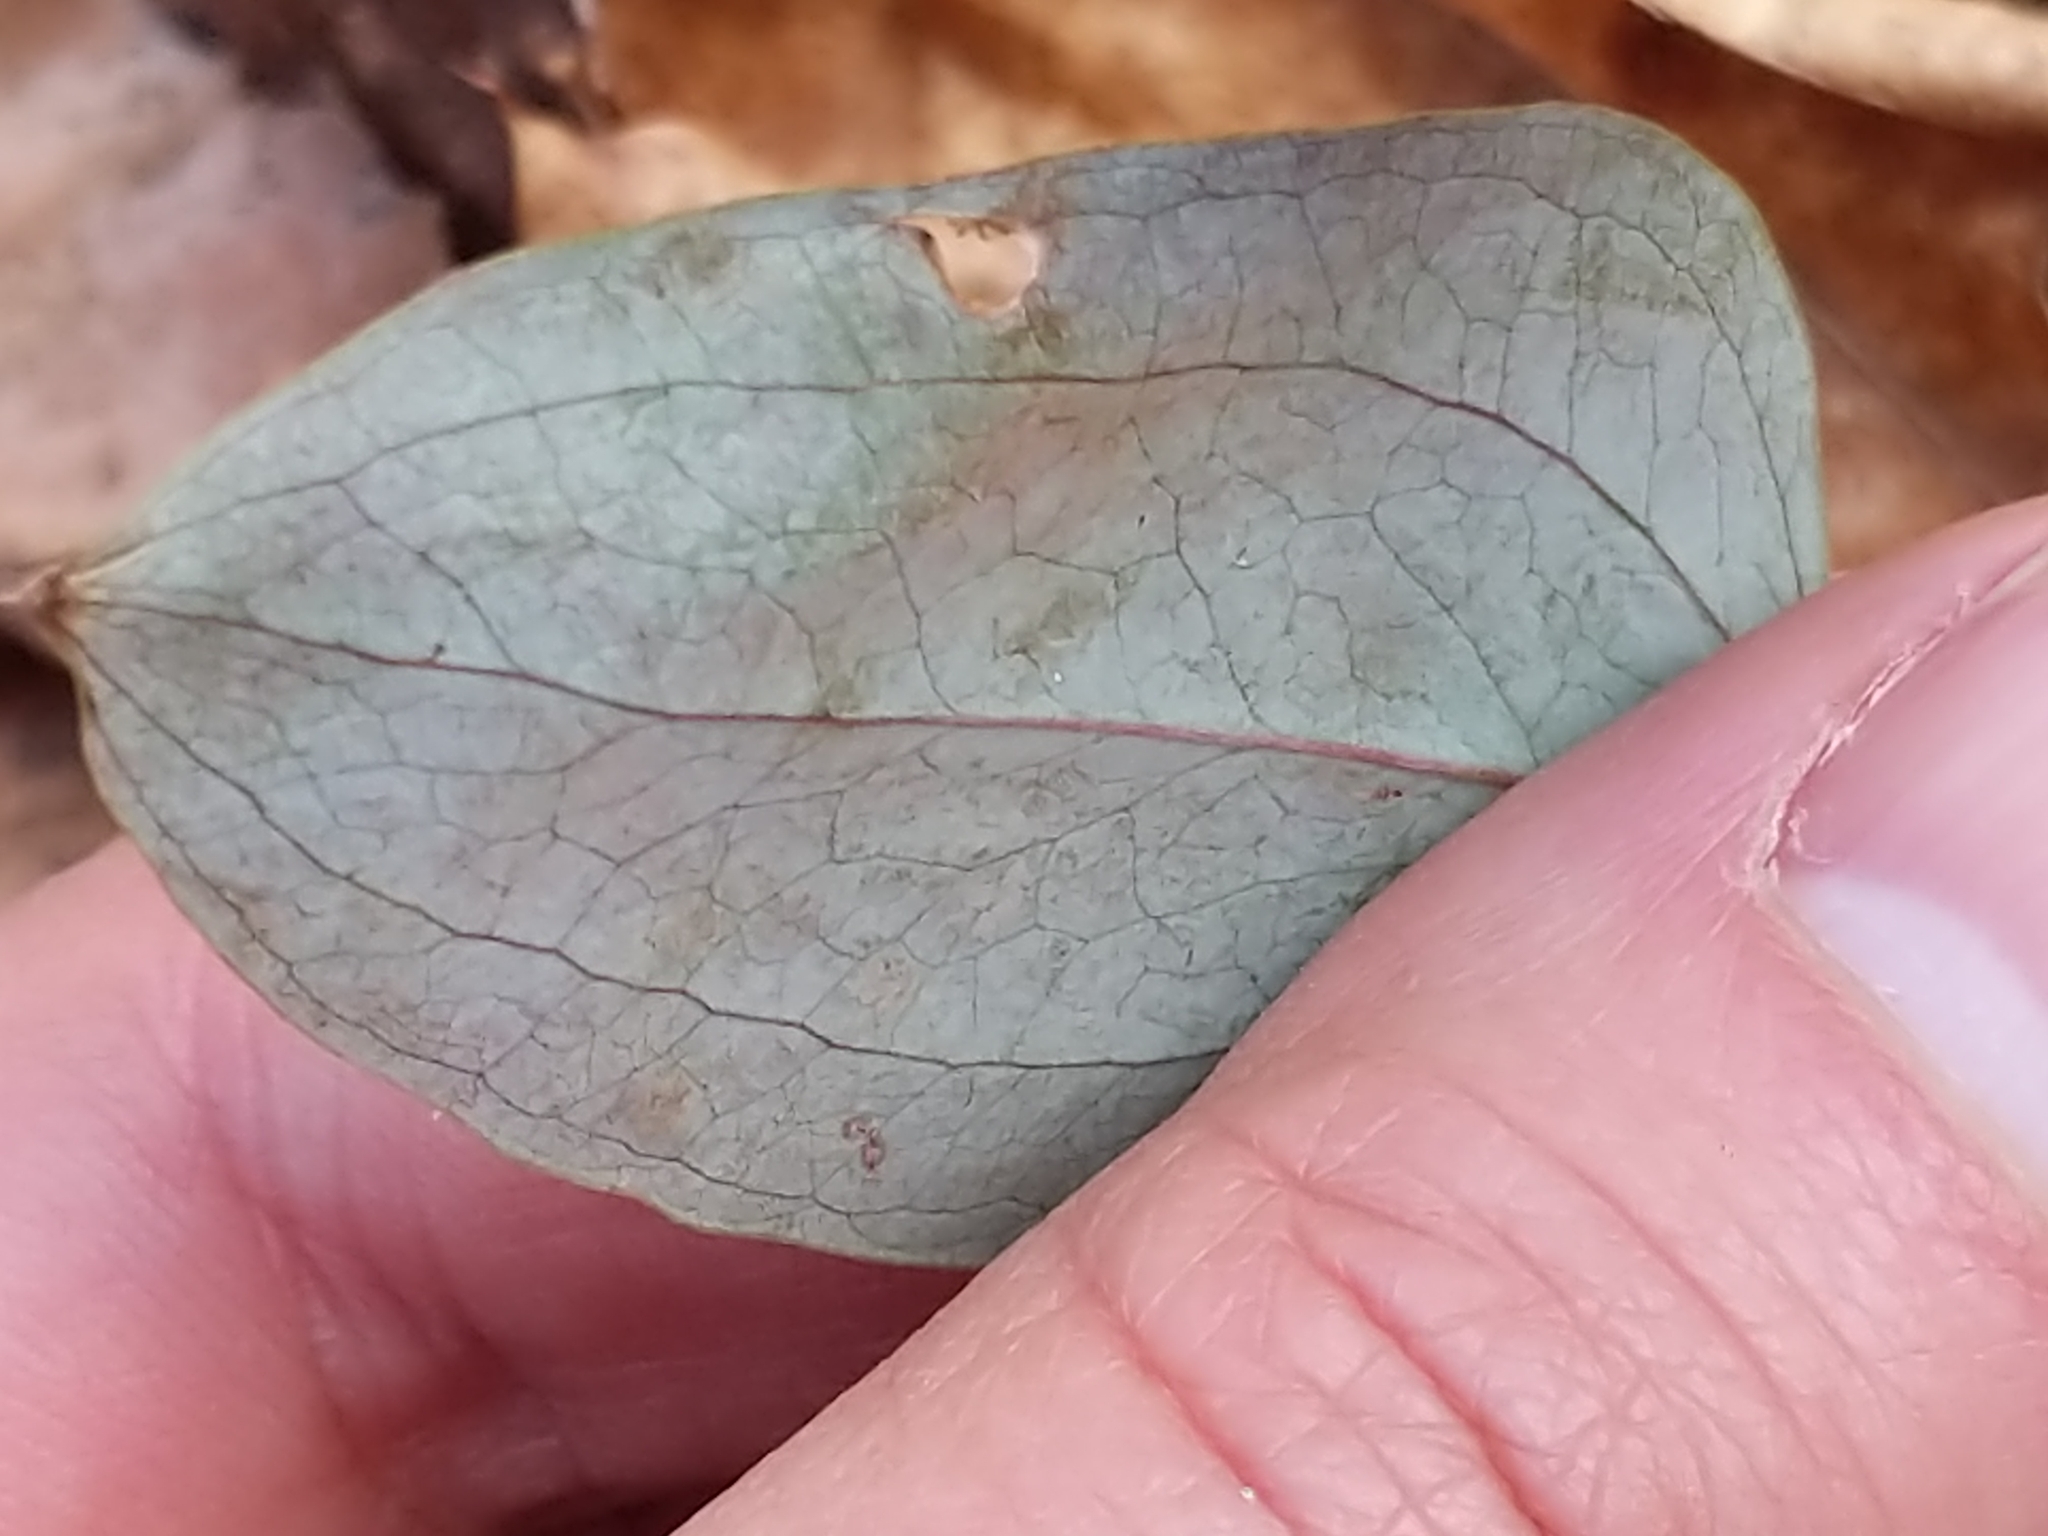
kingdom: Plantae
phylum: Tracheophyta
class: Liliopsida
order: Liliales
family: Smilacaceae
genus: Smilax
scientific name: Smilax glauca
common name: Cat greenbrier
